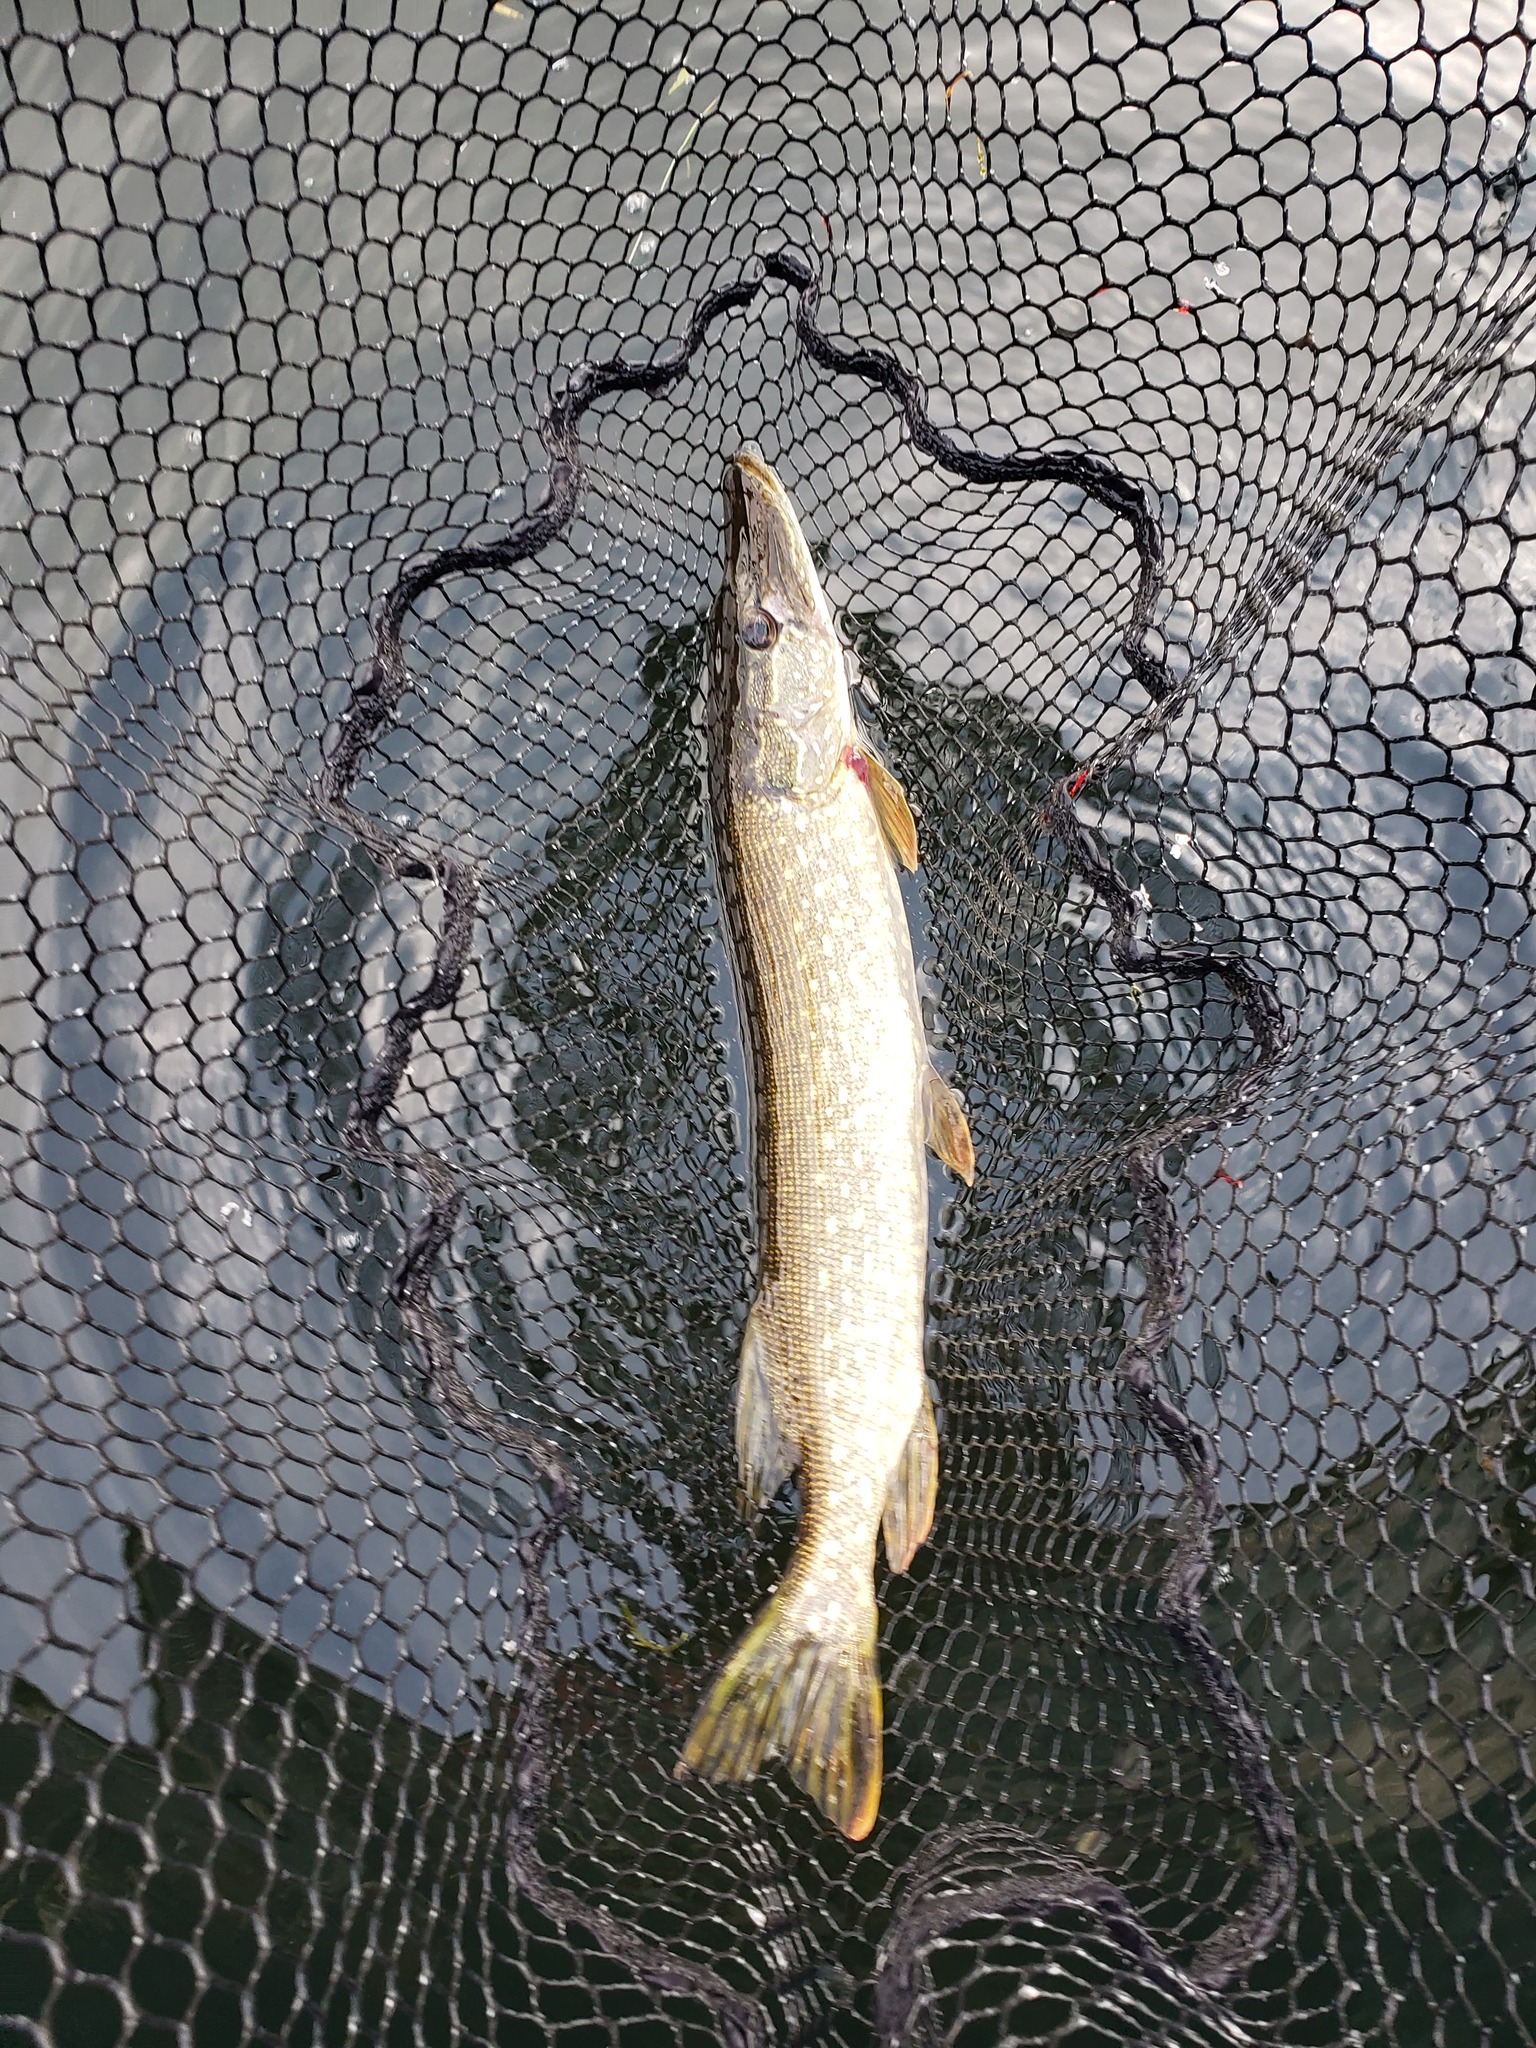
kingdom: Animalia
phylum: Chordata
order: Esociformes
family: Esocidae
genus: Esox
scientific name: Esox lucius
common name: Northern pike
